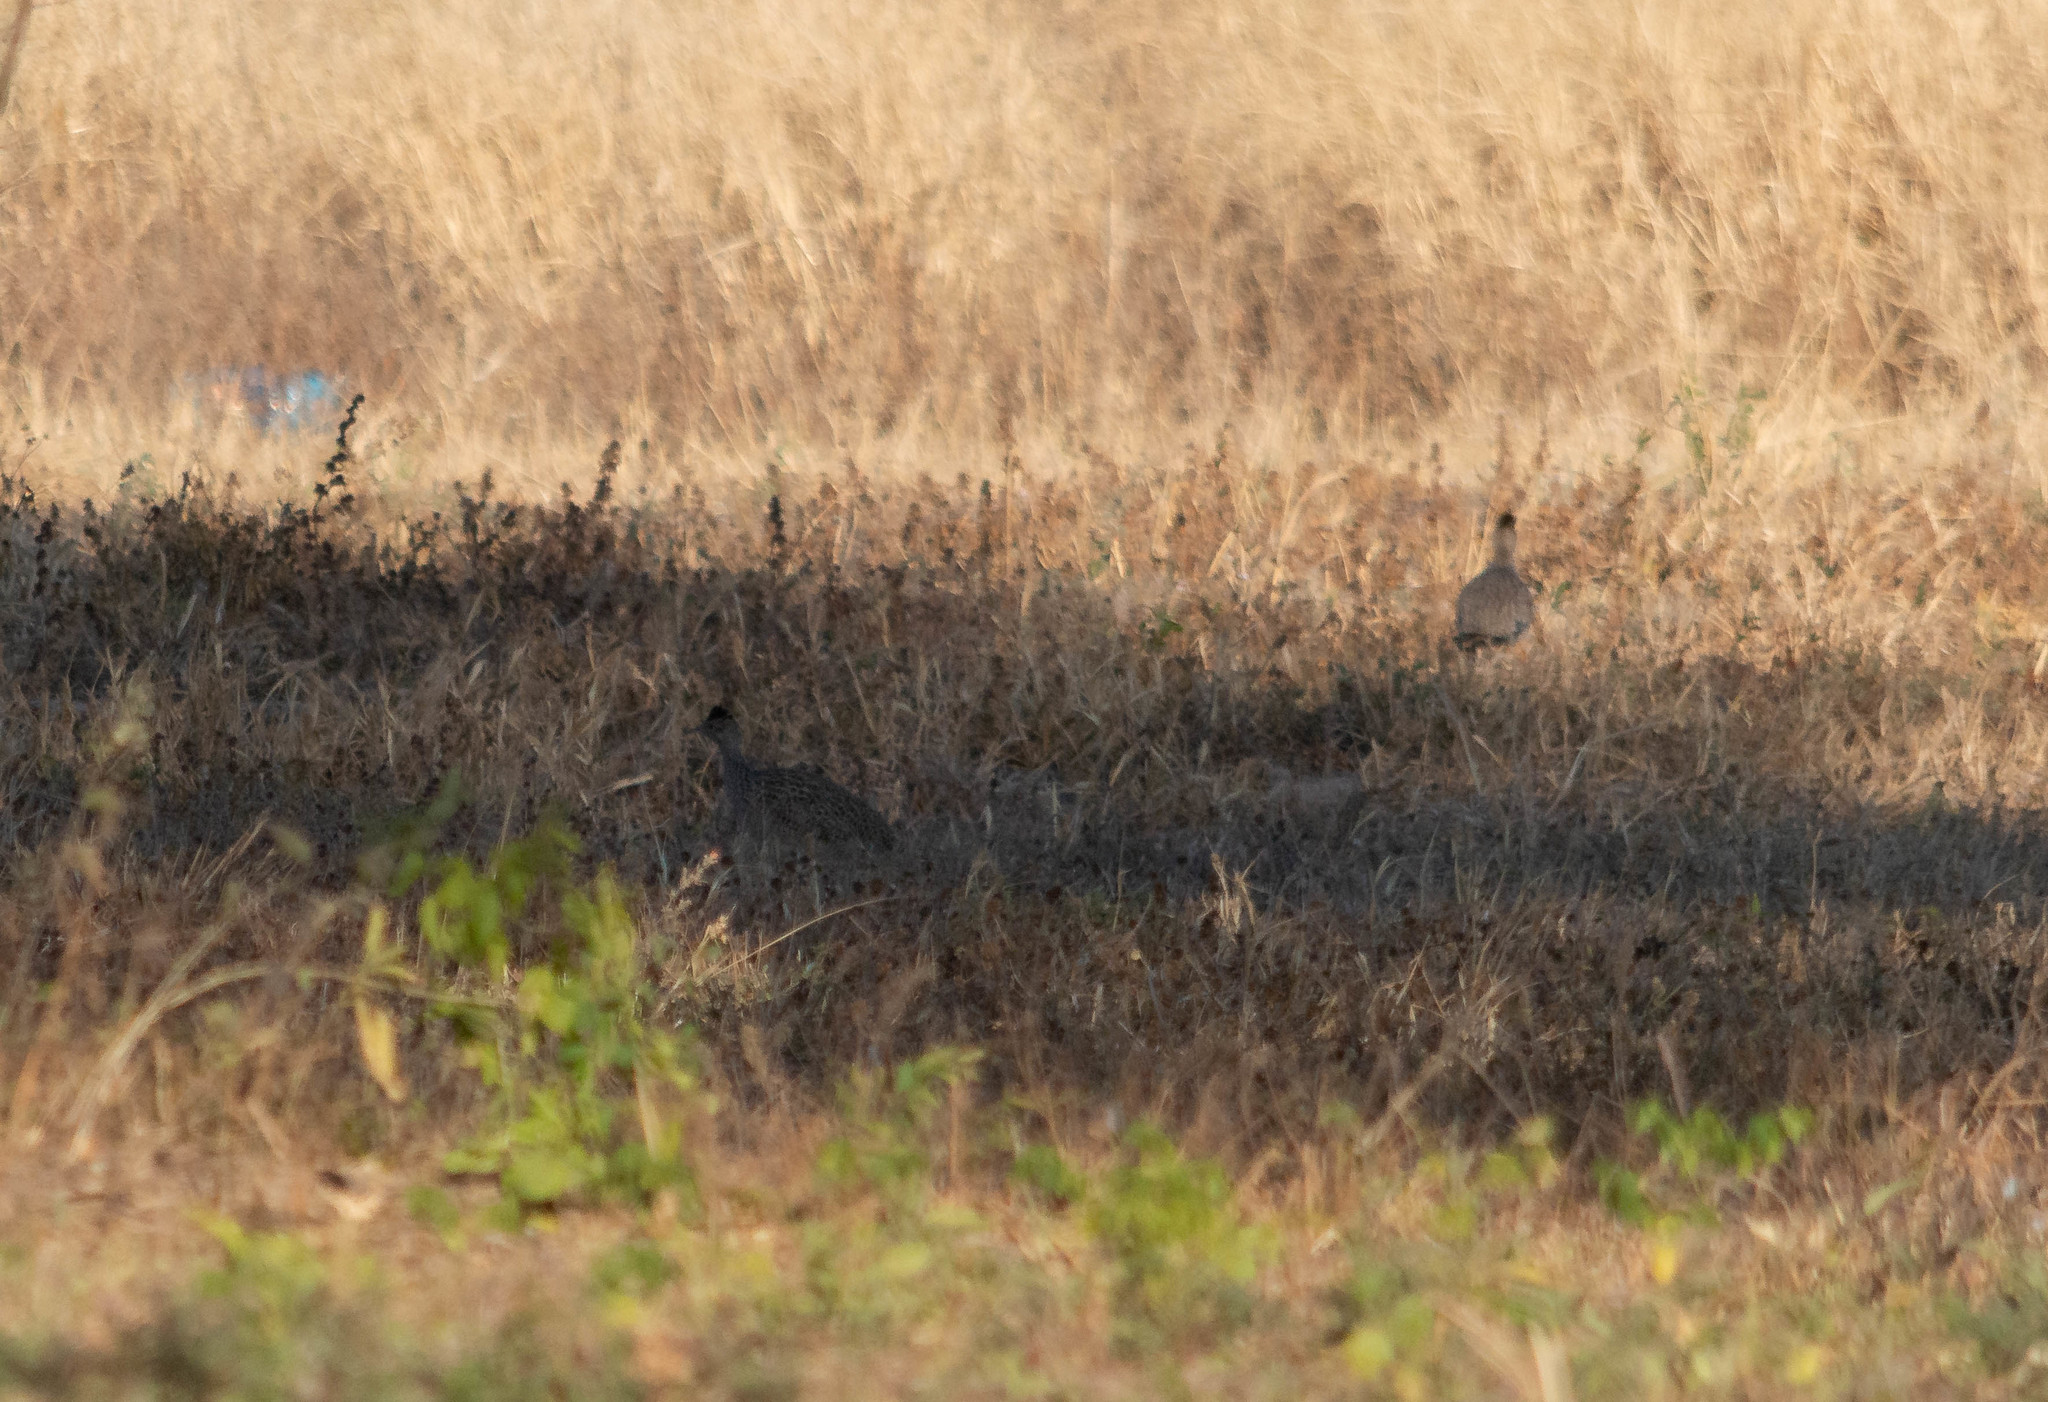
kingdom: Animalia
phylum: Chordata
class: Aves
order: Tinamiformes
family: Tinamidae
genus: Nothoprocta
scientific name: Nothoprocta cinerascens
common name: Brushland tinamou
